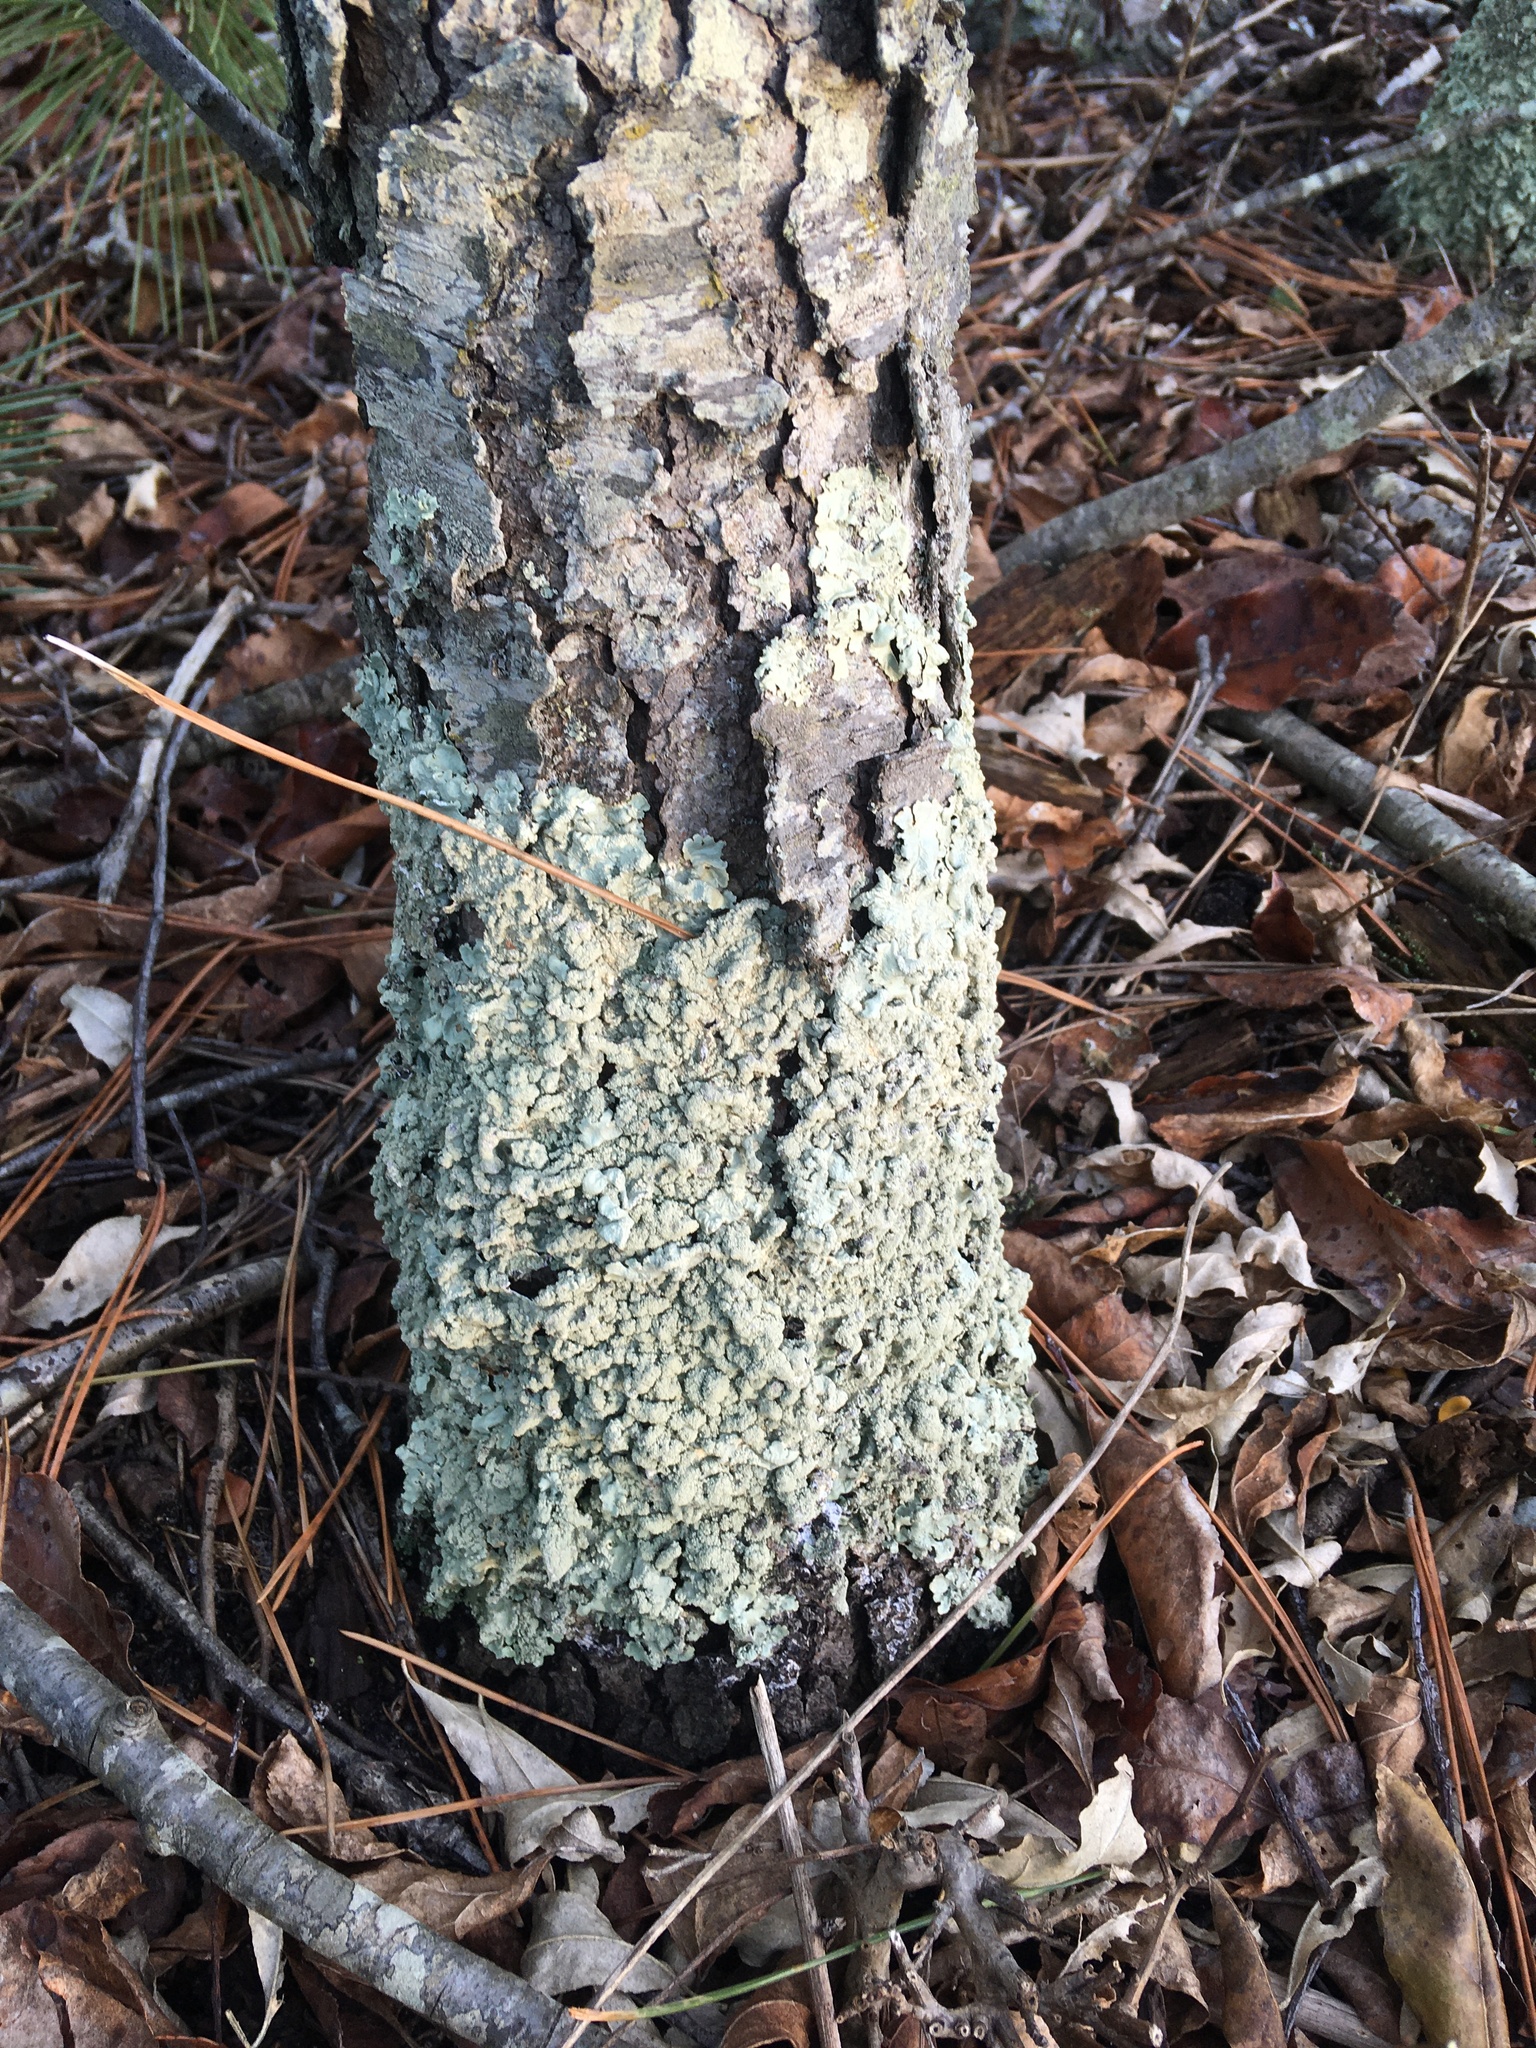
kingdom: Fungi
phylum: Ascomycota
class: Lecanoromycetes
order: Lecanorales
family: Parmeliaceae
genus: Flavoparmelia
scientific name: Flavoparmelia caperata
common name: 40-mile per hour lichen
